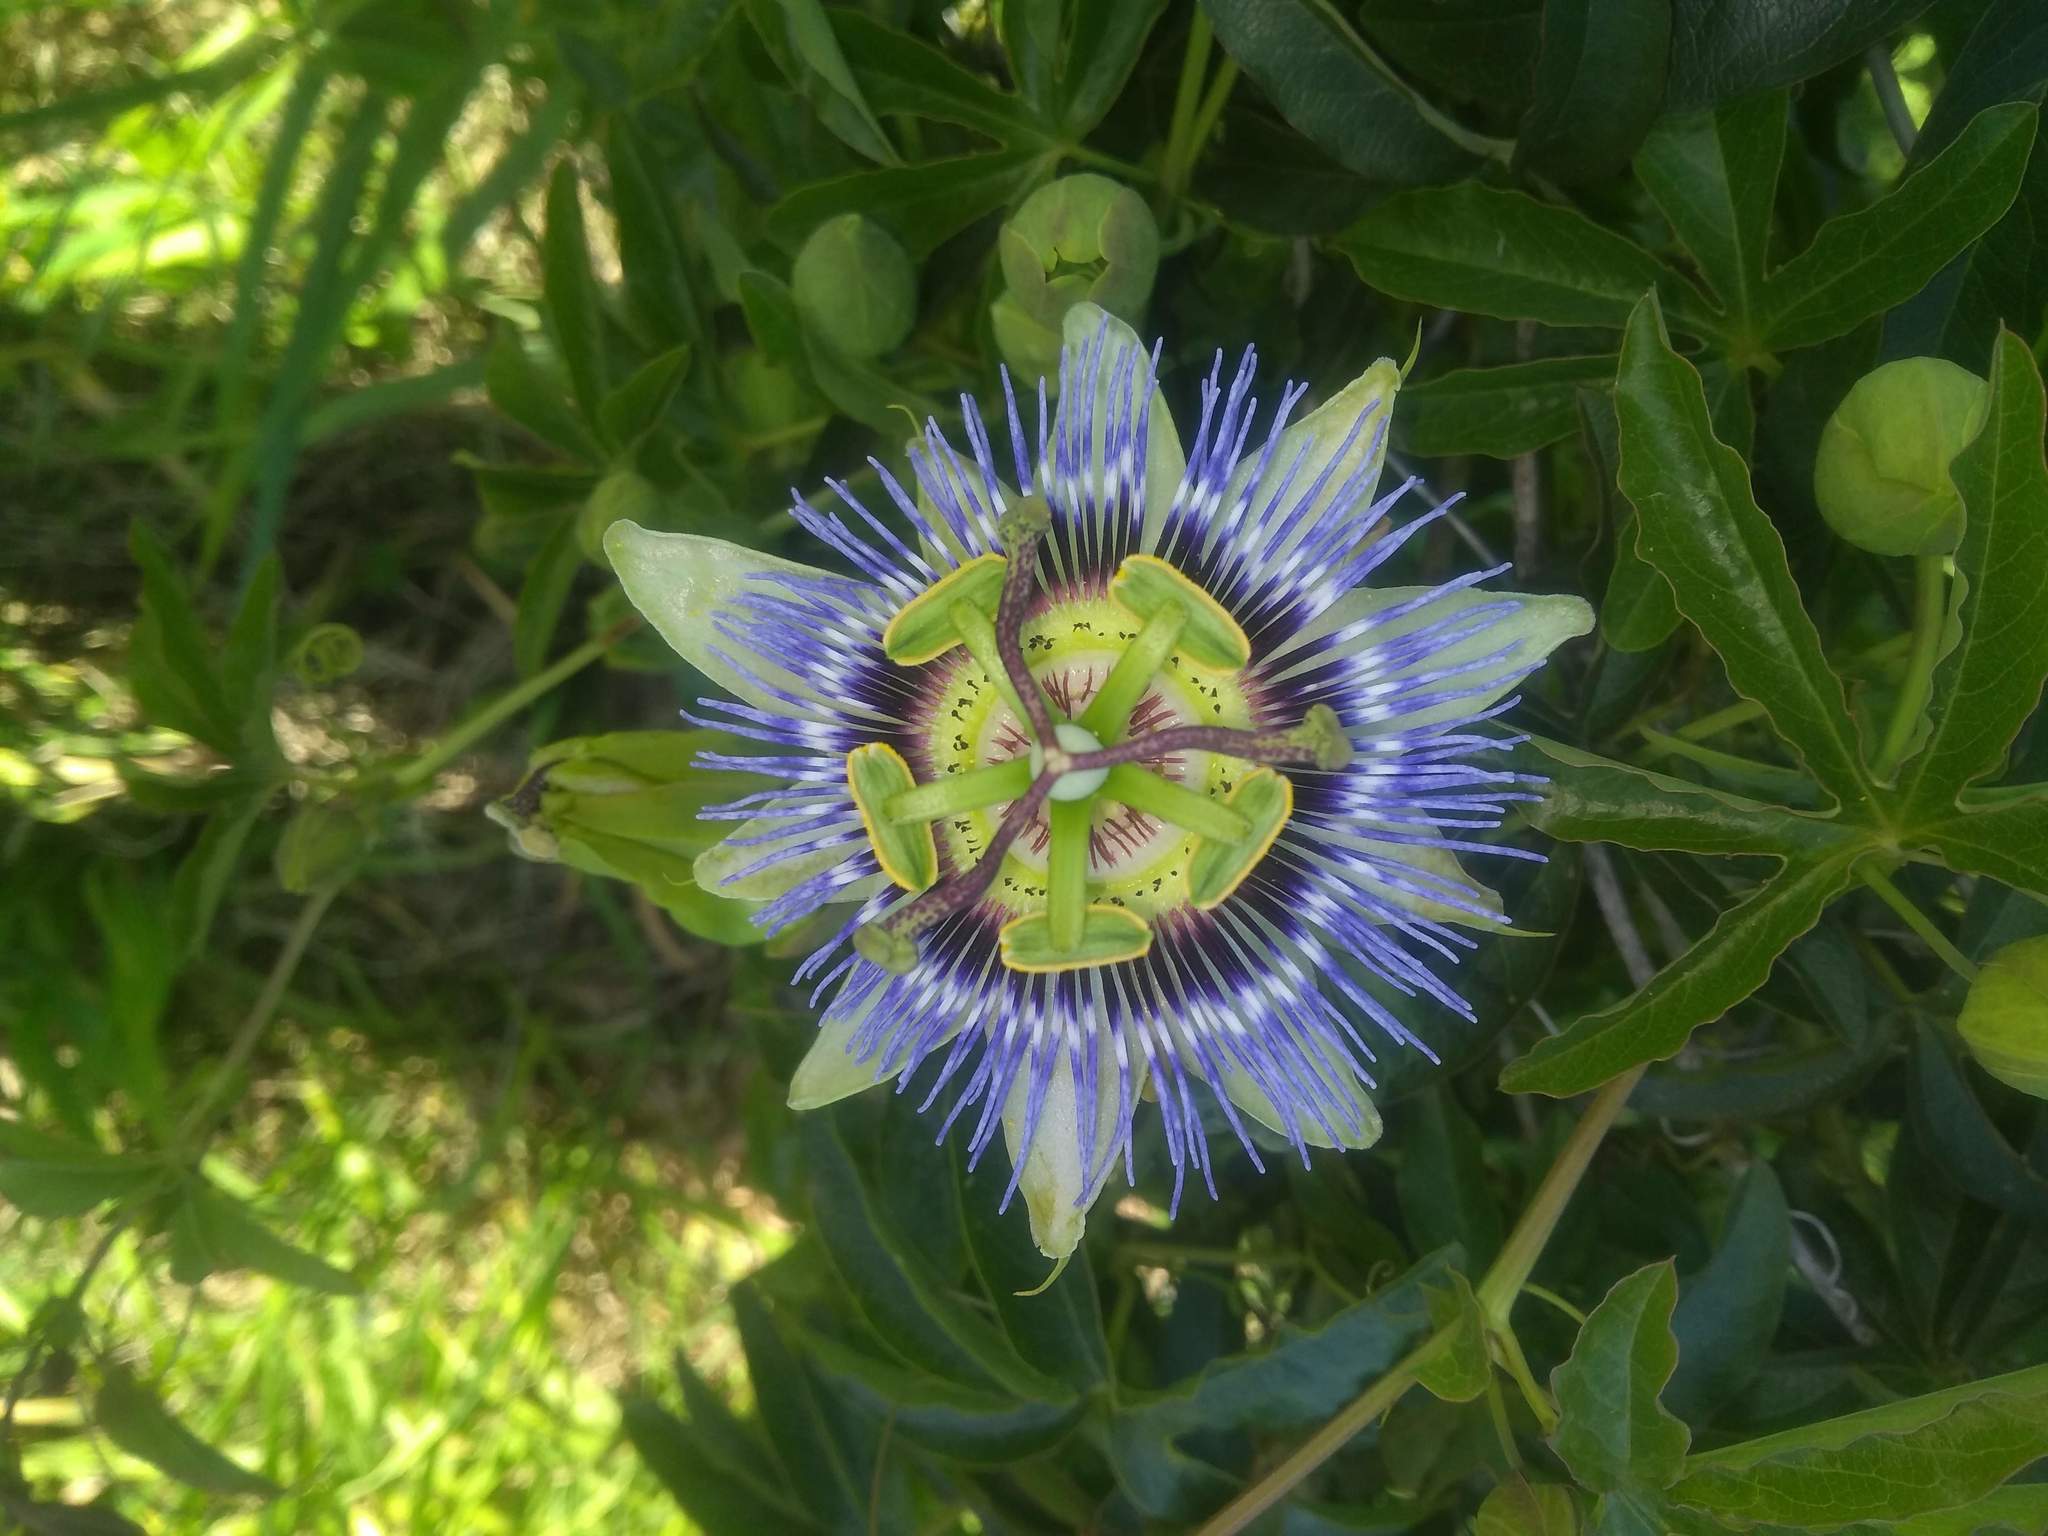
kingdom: Plantae
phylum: Tracheophyta
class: Magnoliopsida
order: Malpighiales
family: Passifloraceae
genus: Passiflora
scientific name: Passiflora caerulea
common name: Blue passionflower
